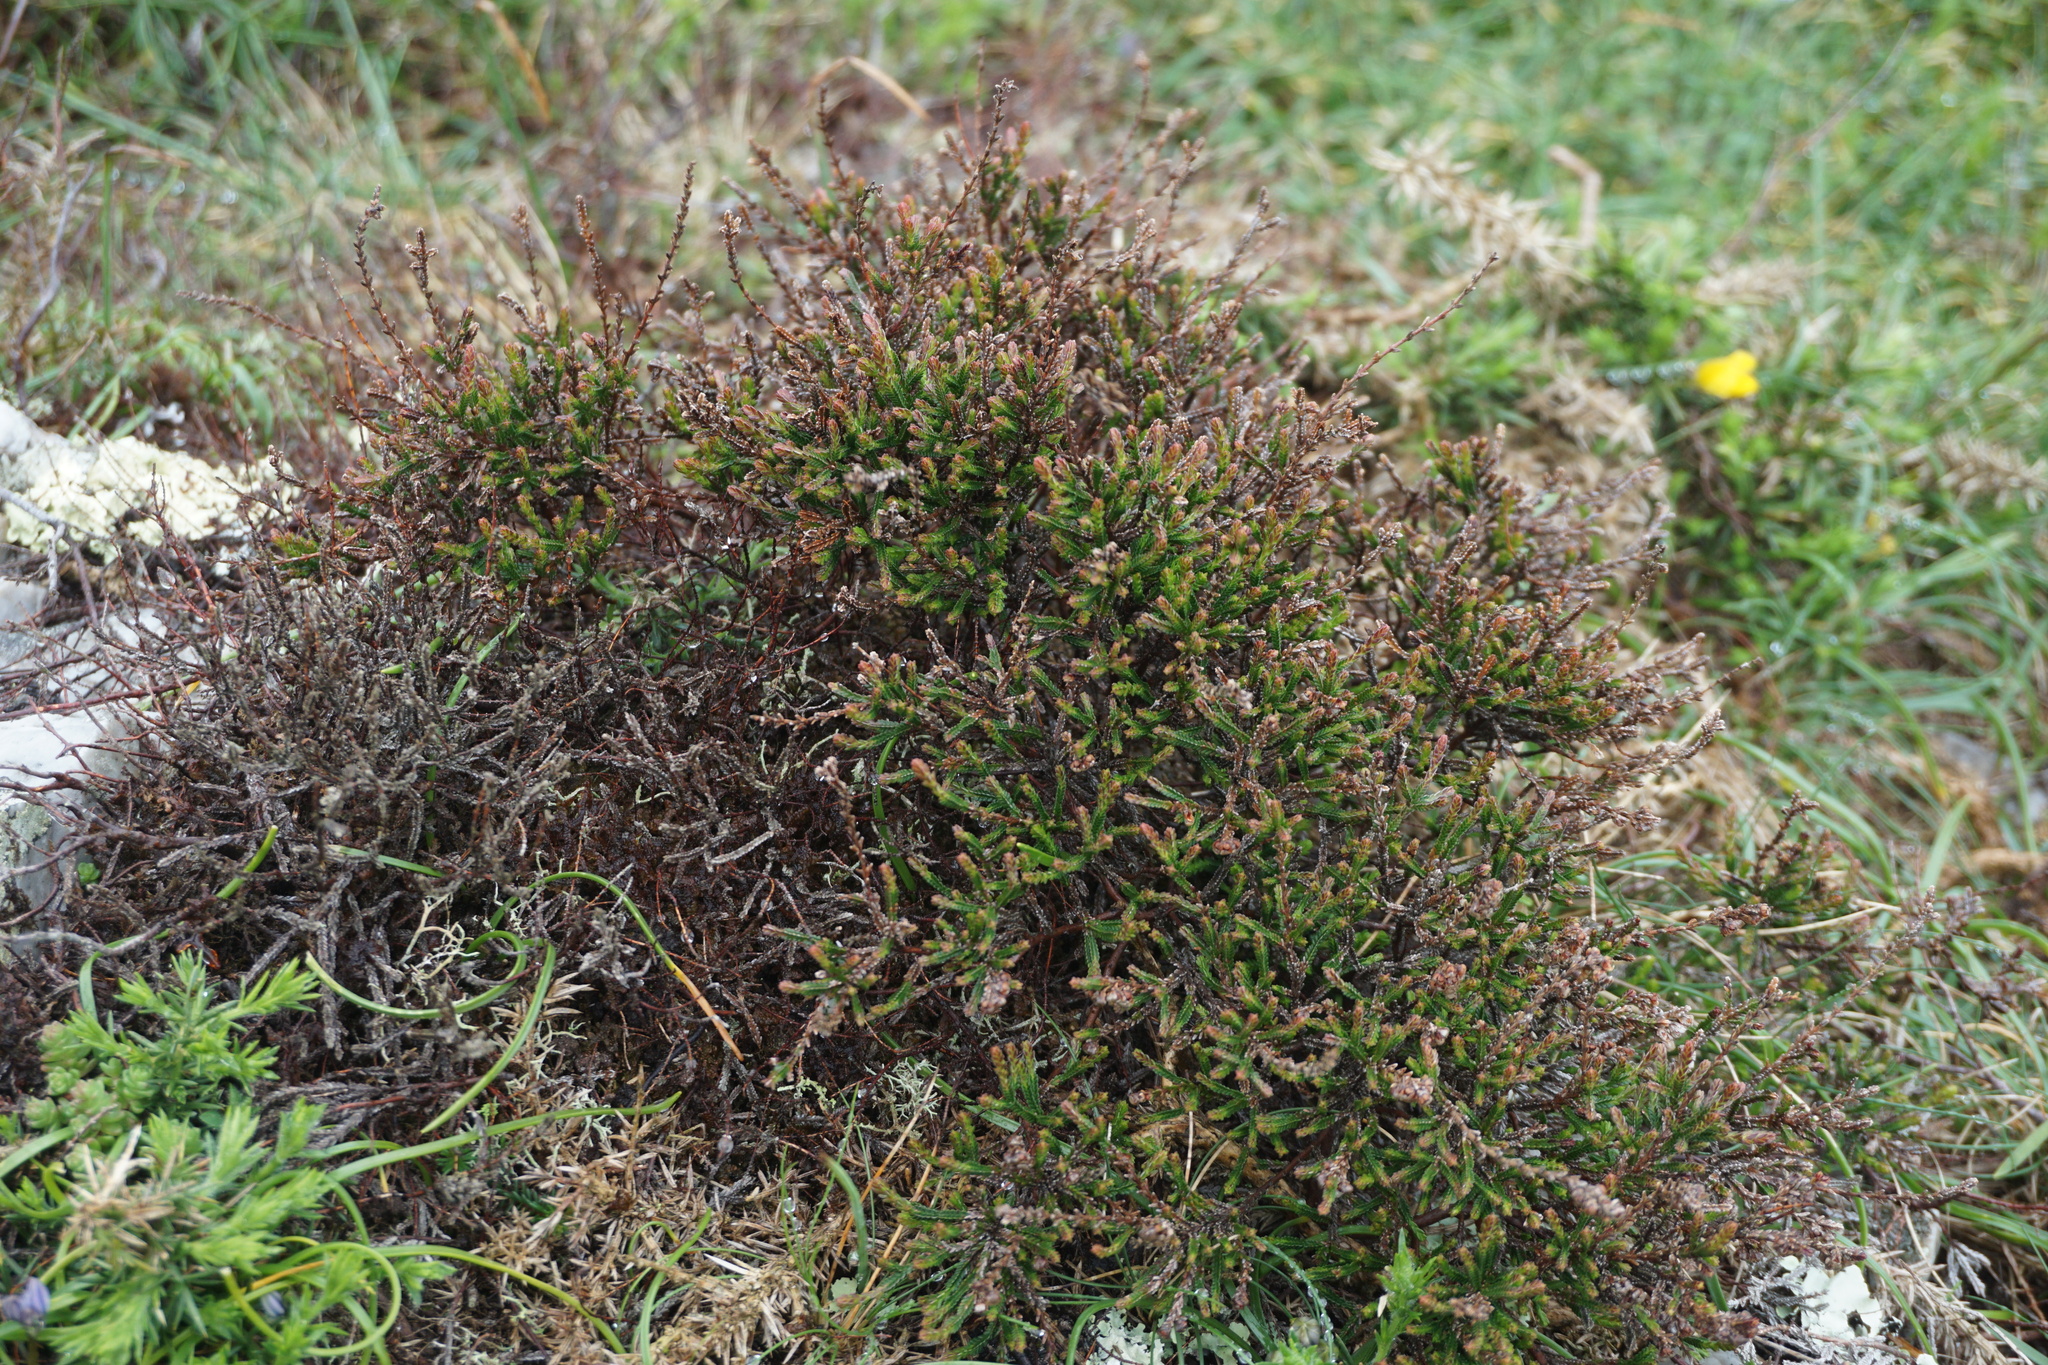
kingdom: Plantae
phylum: Tracheophyta
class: Magnoliopsida
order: Ericales
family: Ericaceae
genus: Calluna
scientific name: Calluna vulgaris
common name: Heather
